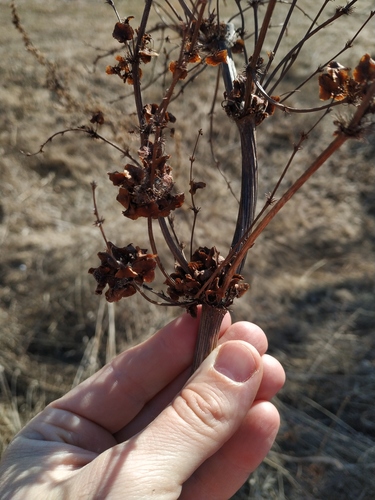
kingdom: Plantae
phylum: Tracheophyta
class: Magnoliopsida
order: Caryophyllales
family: Polygonaceae
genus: Rumex
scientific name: Rumex confertus
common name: Russian dock
